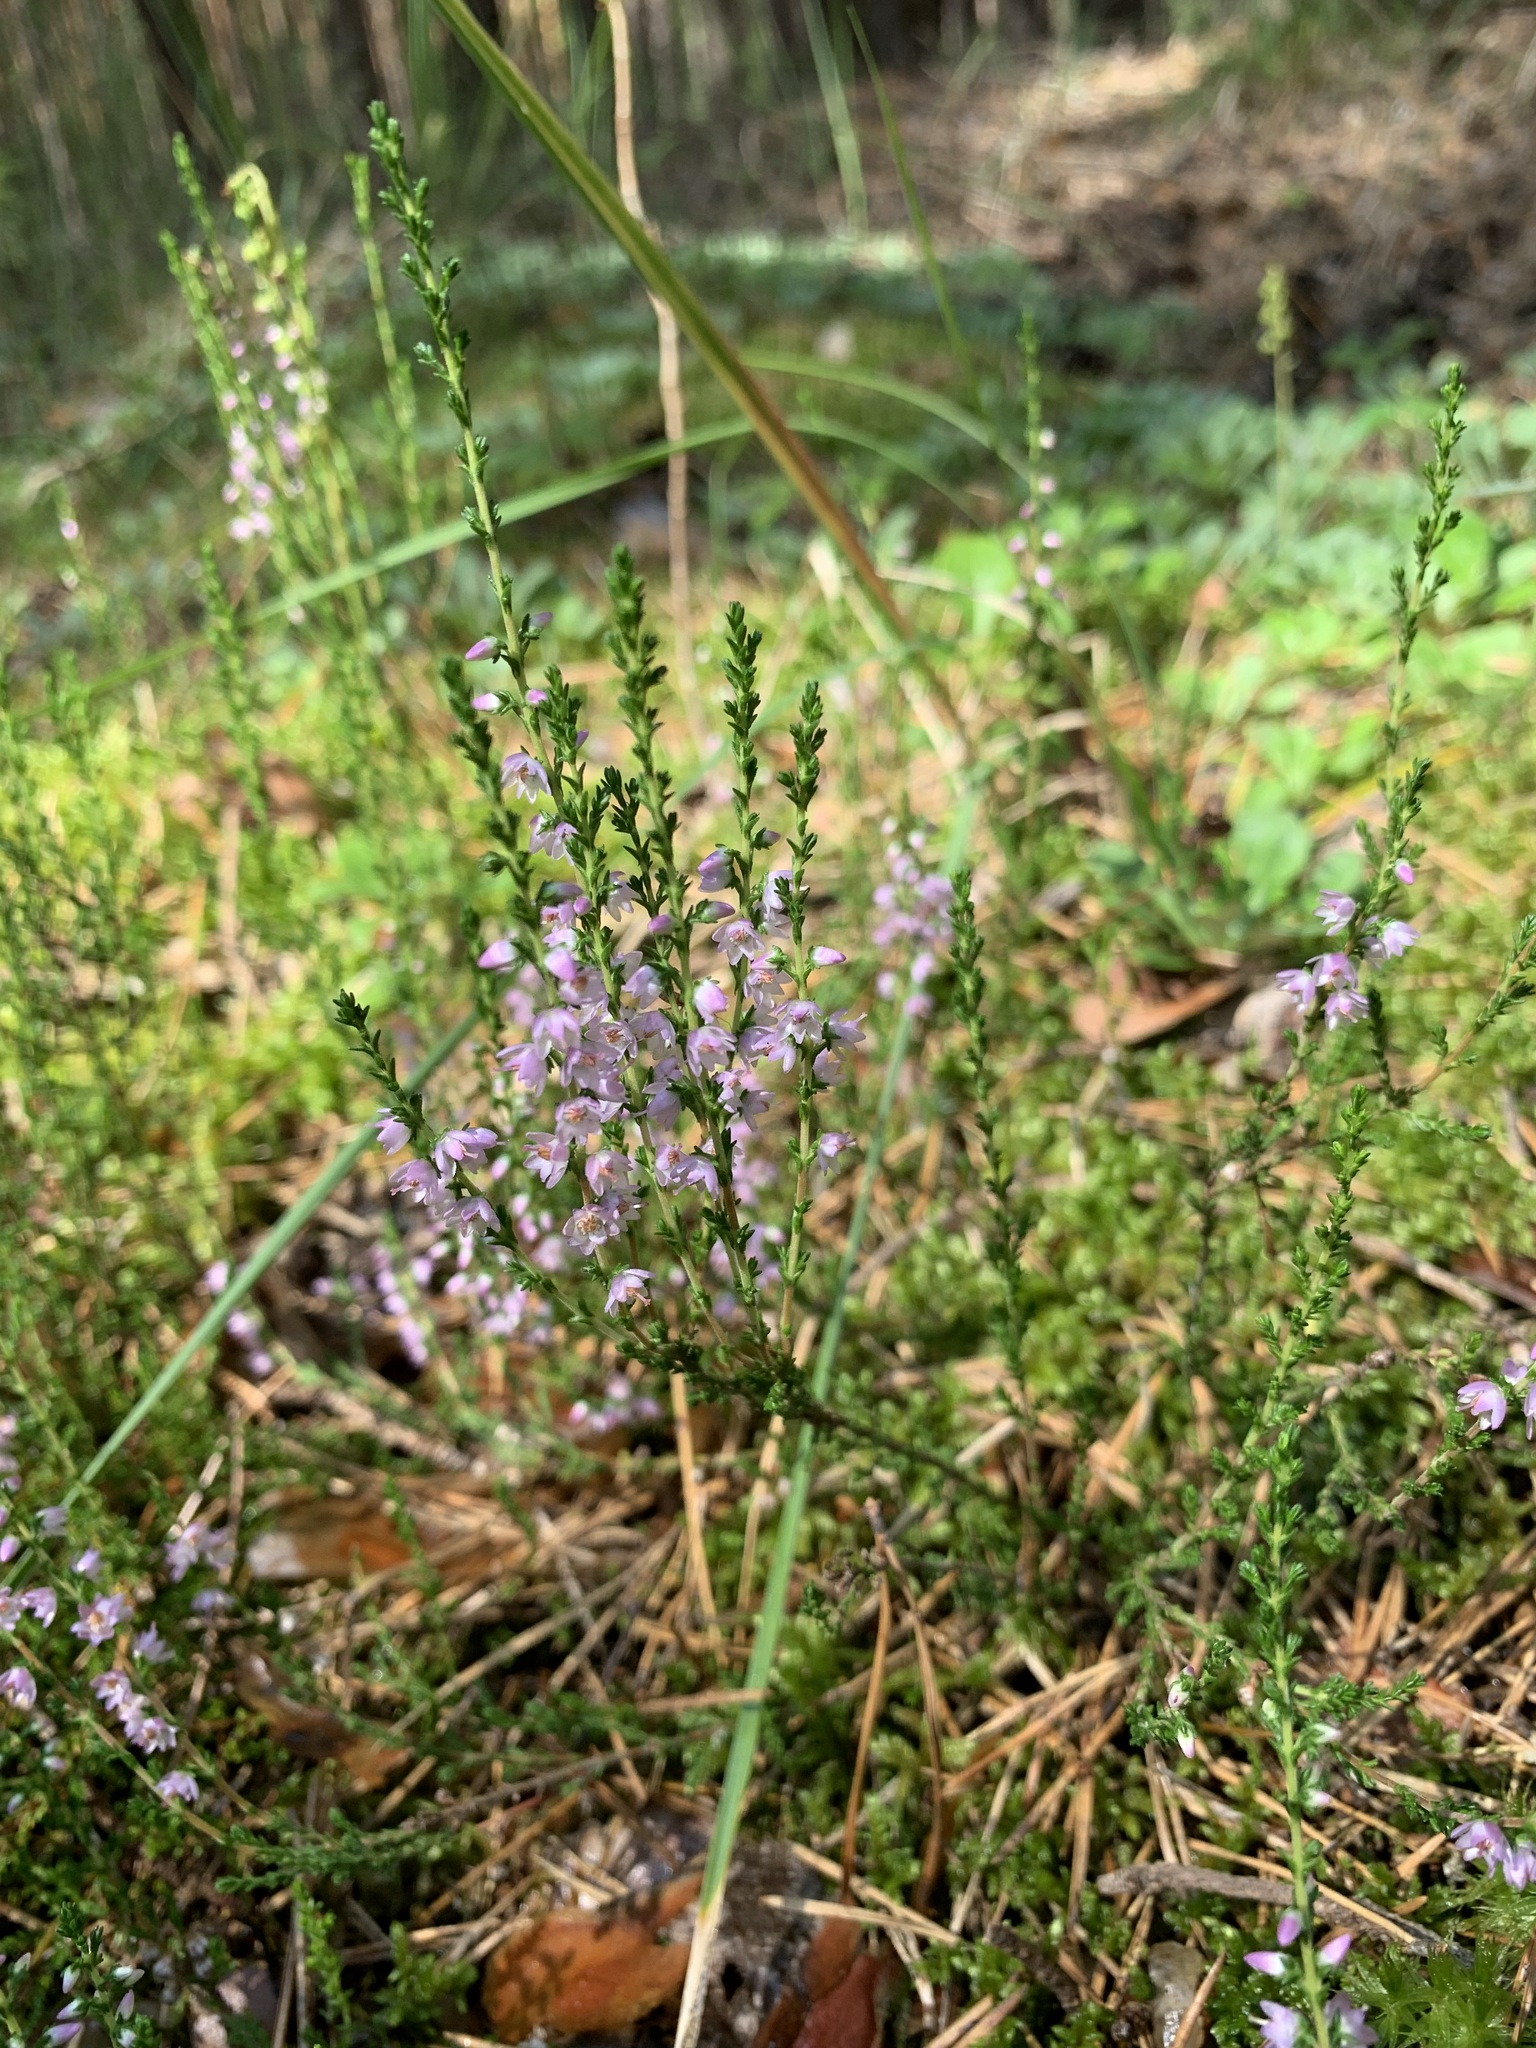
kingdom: Plantae
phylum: Tracheophyta
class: Magnoliopsida
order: Ericales
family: Ericaceae
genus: Calluna
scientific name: Calluna vulgaris
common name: Heather
